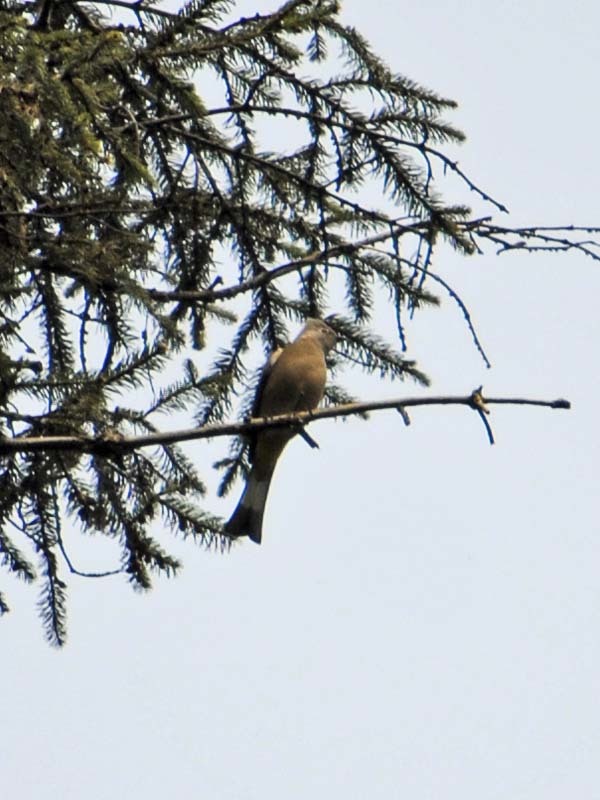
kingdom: Animalia
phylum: Chordata
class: Aves
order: Passeriformes
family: Ptilogonatidae
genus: Ptilogonys
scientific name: Ptilogonys cinereus
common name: Gray silky-flycatcher
